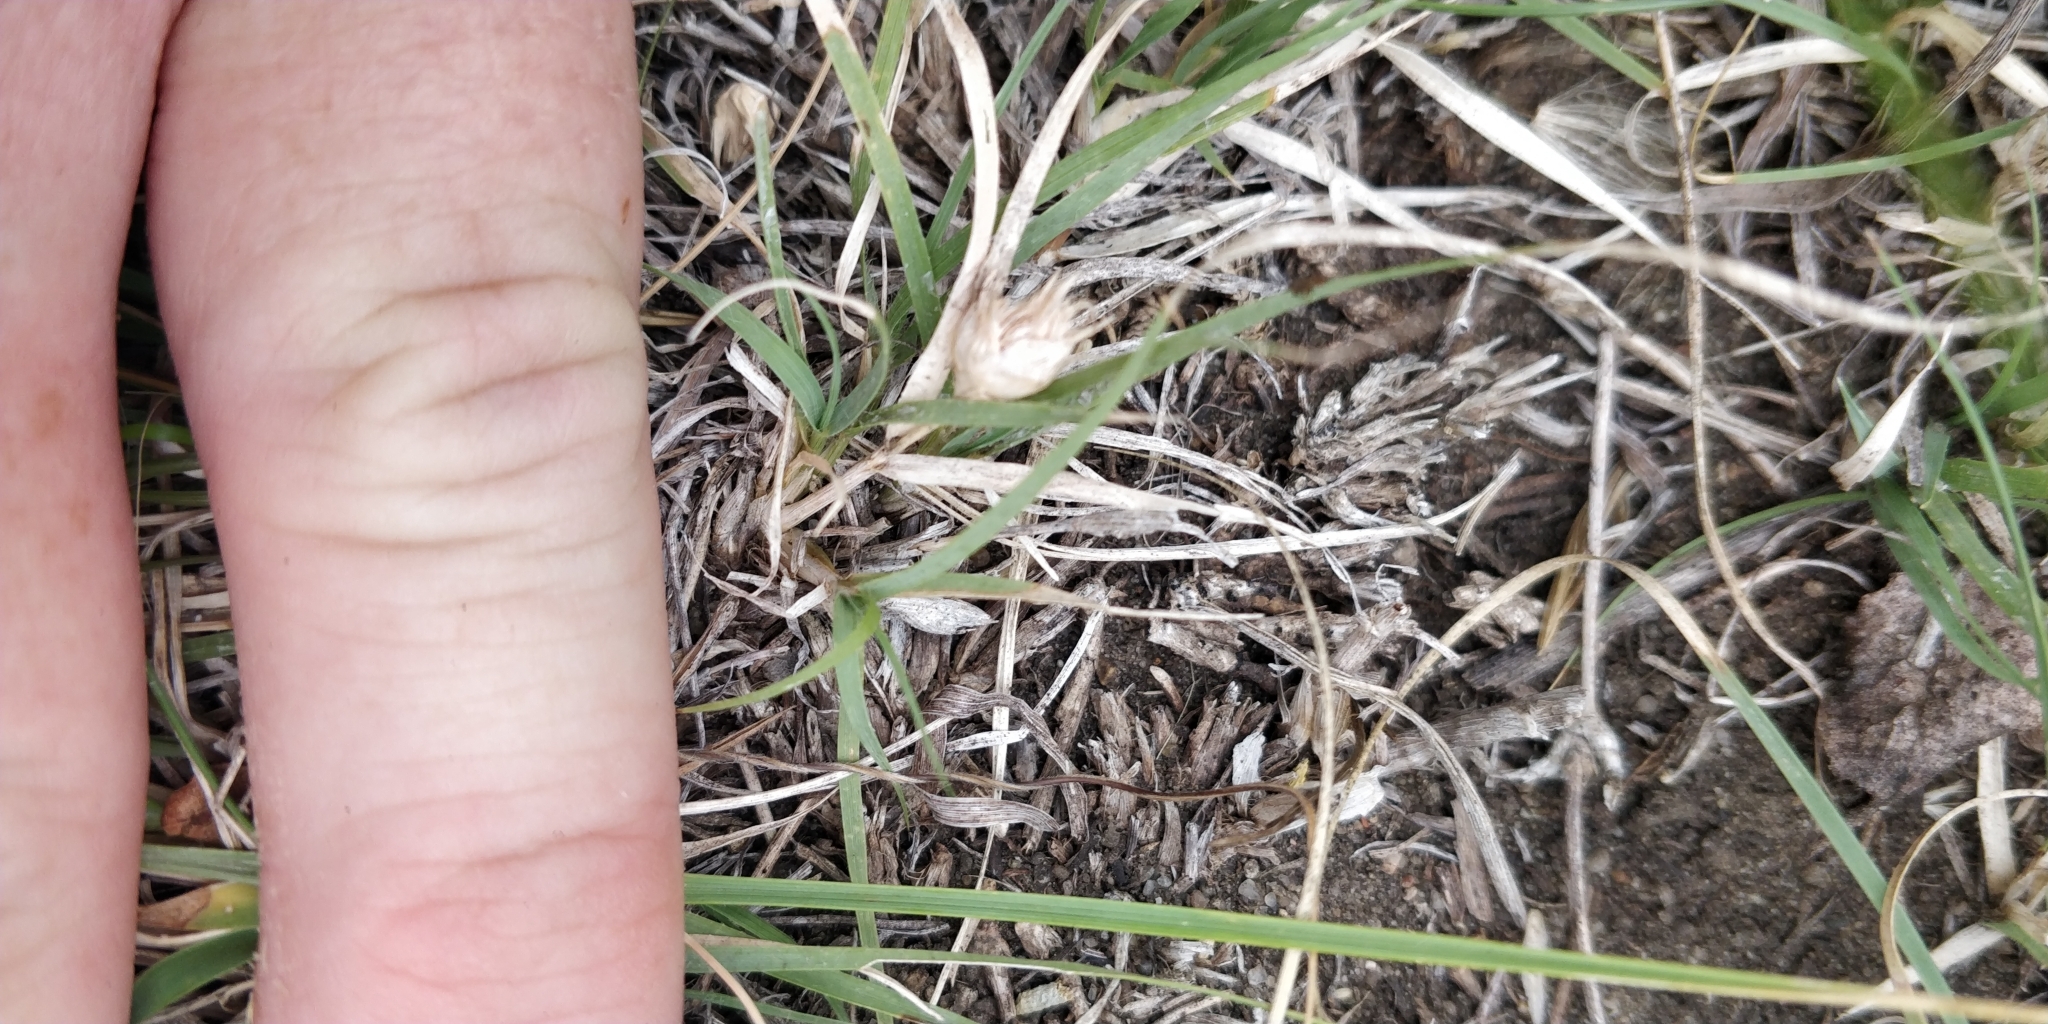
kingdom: Plantae
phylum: Tracheophyta
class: Liliopsida
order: Poales
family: Poaceae
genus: Bouteloua
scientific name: Bouteloua dactyloides
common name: Buffalo grass
